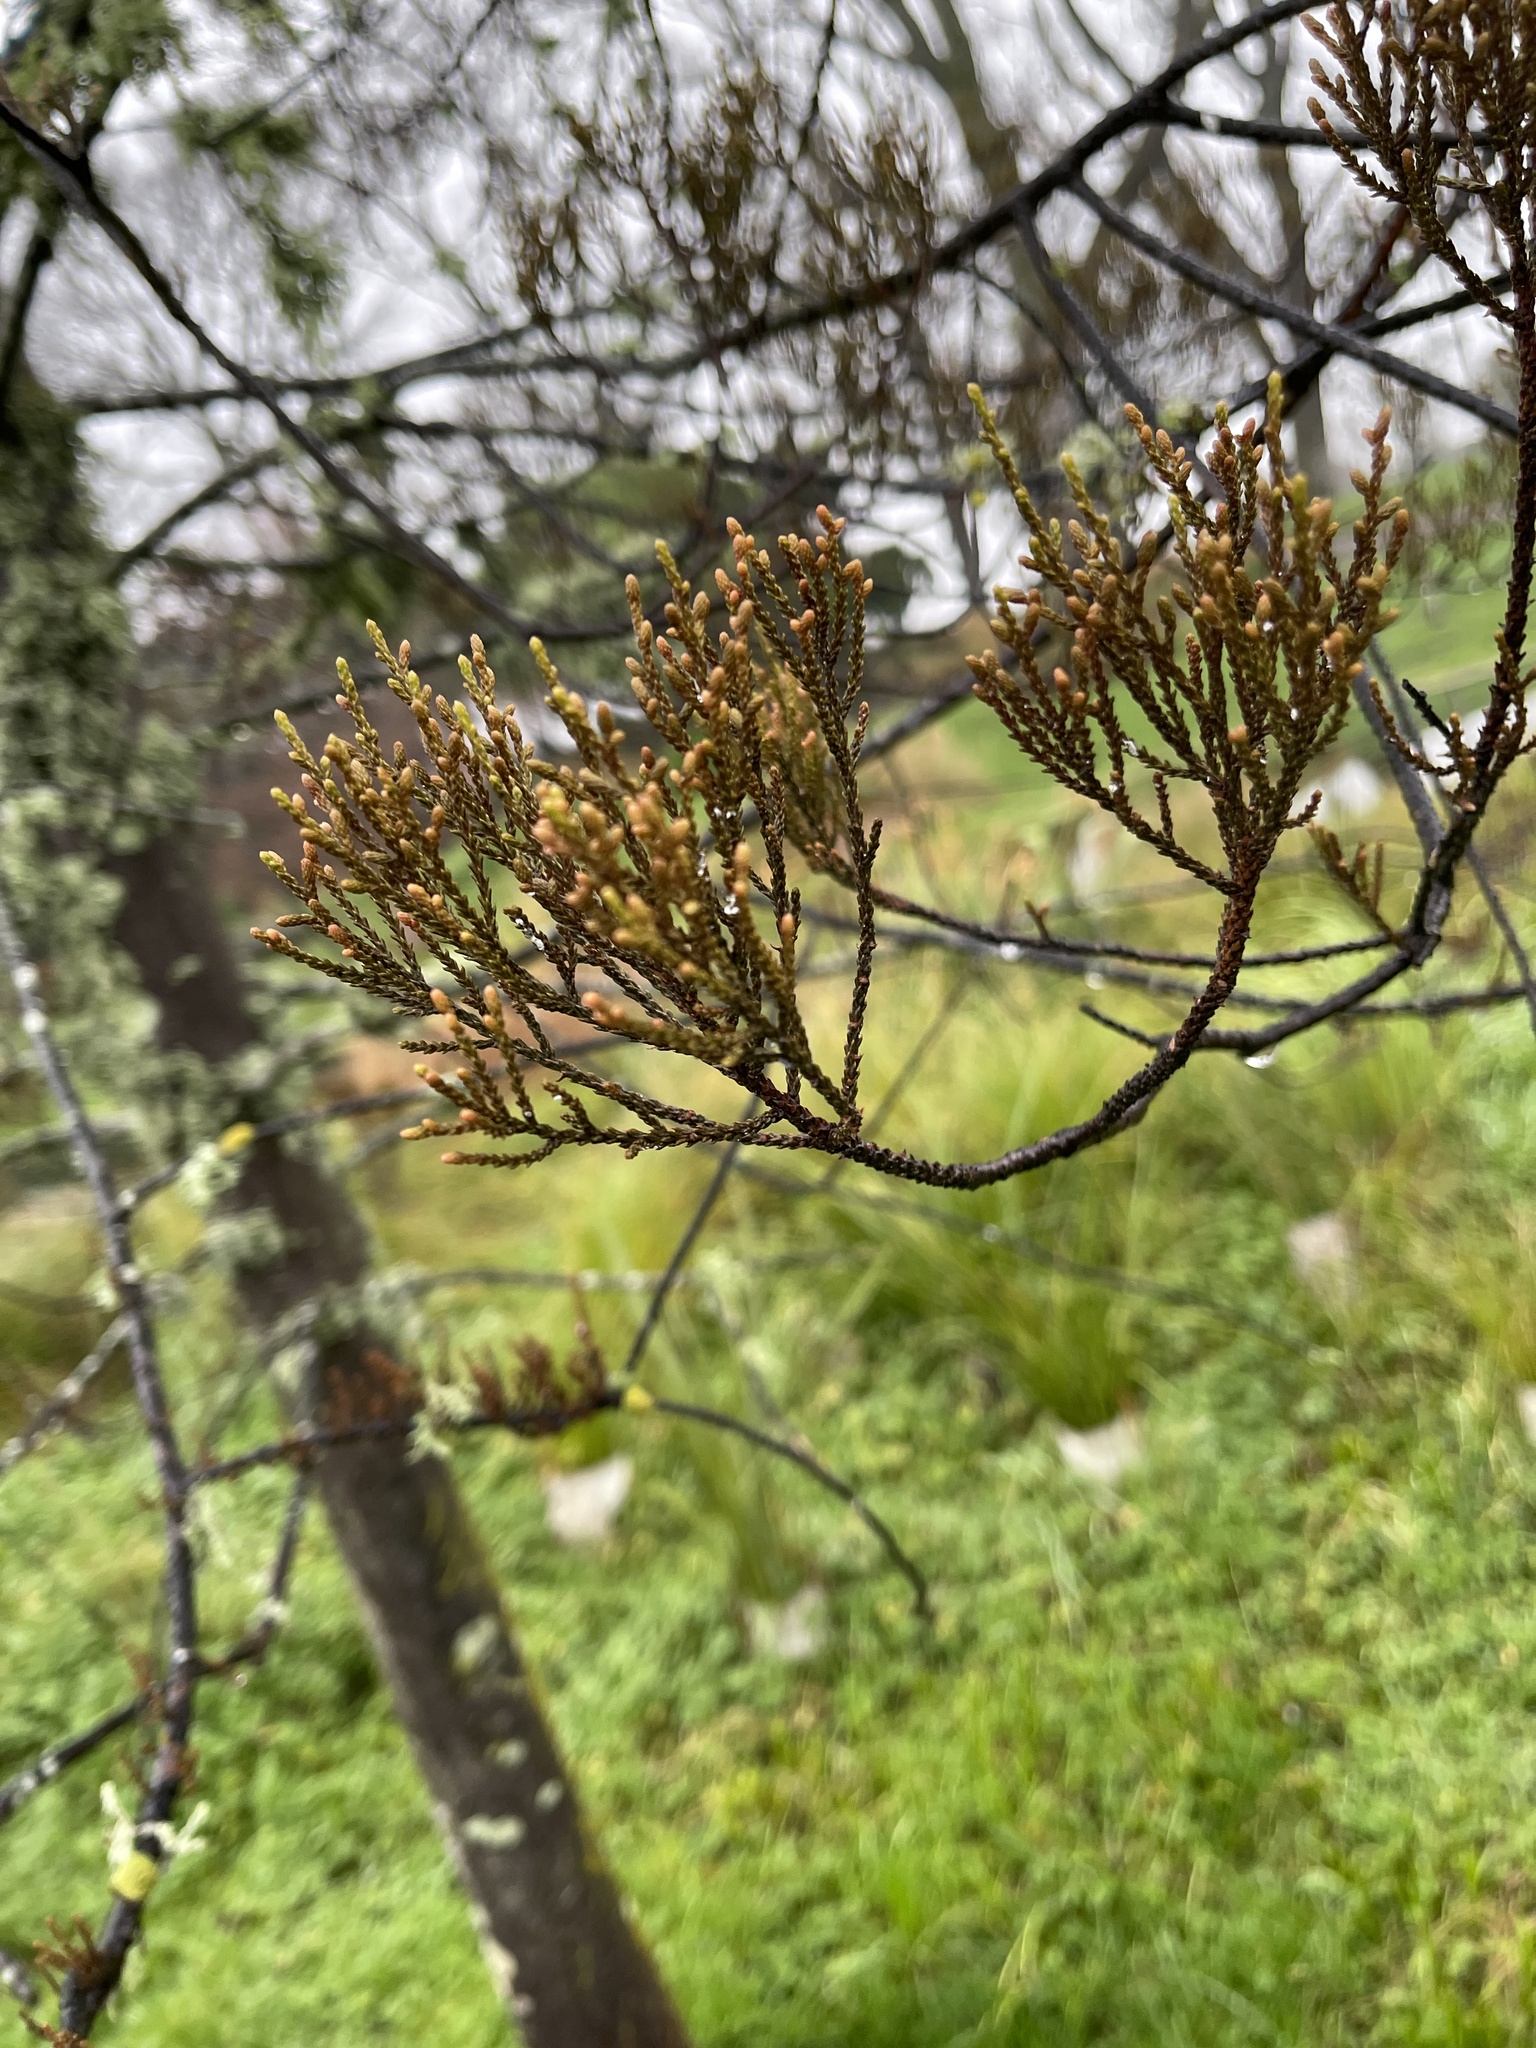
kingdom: Plantae
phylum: Tracheophyta
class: Pinopsida
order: Pinales
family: Podocarpaceae
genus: Dacrycarpus
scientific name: Dacrycarpus dacrydioides
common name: White pine
